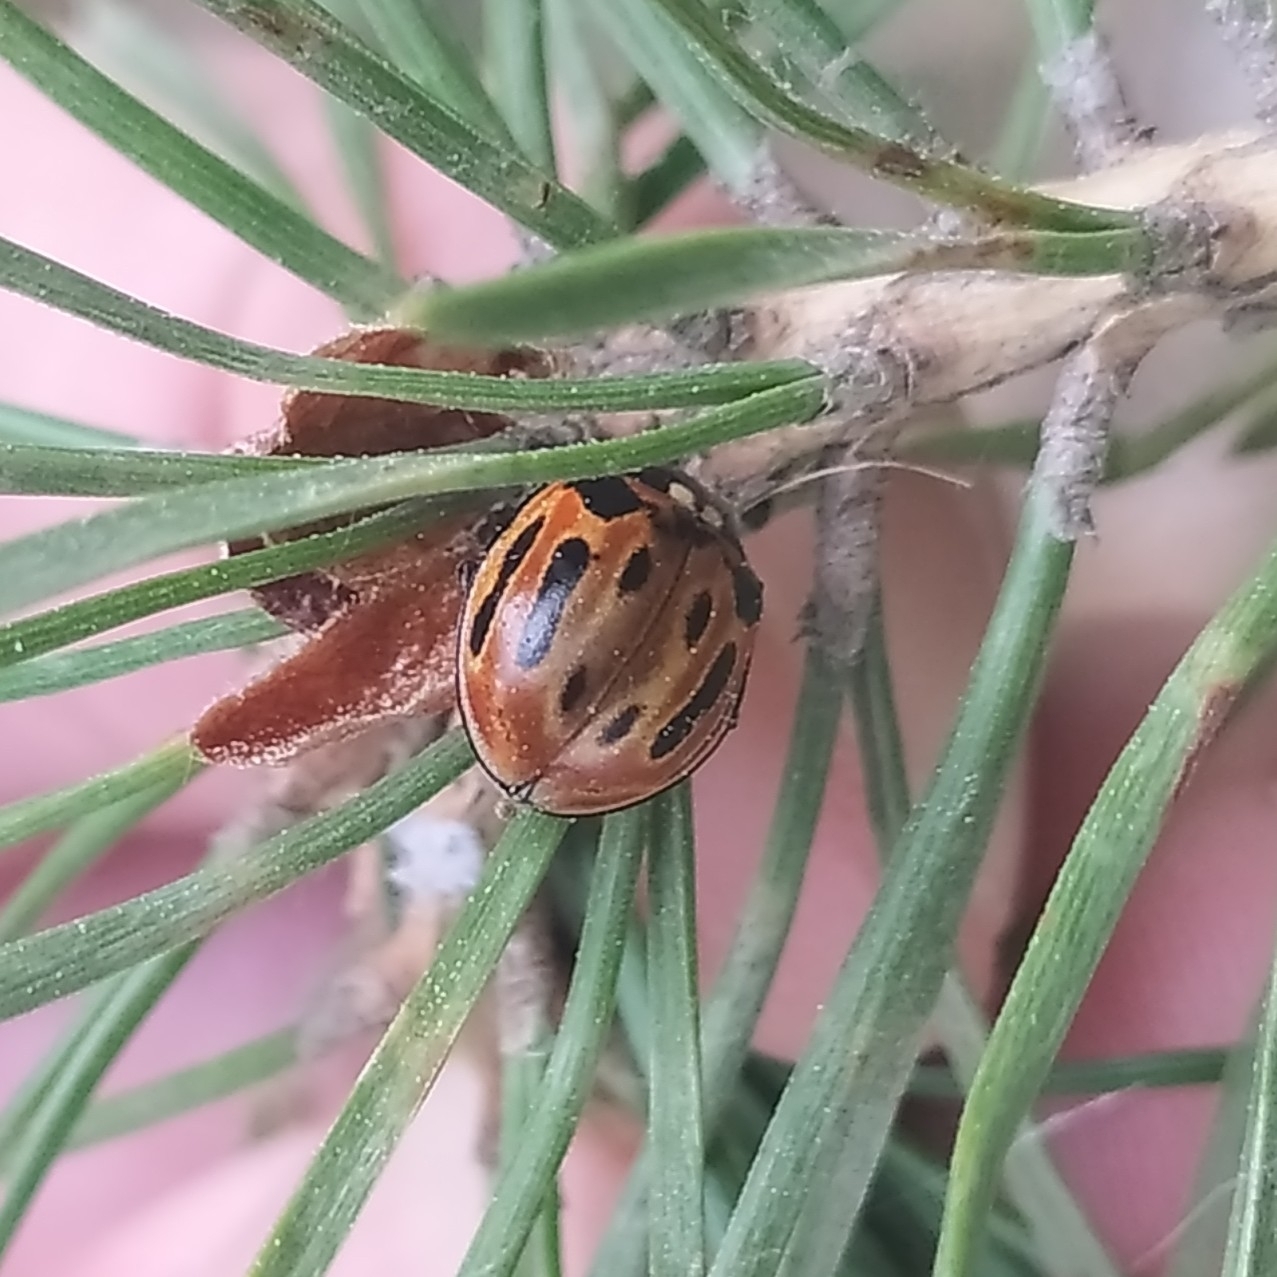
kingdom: Animalia
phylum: Arthropoda
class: Insecta
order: Coleoptera
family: Coccinellidae
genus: Anatis
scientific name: Anatis ocellata
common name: Eyed ladybird
